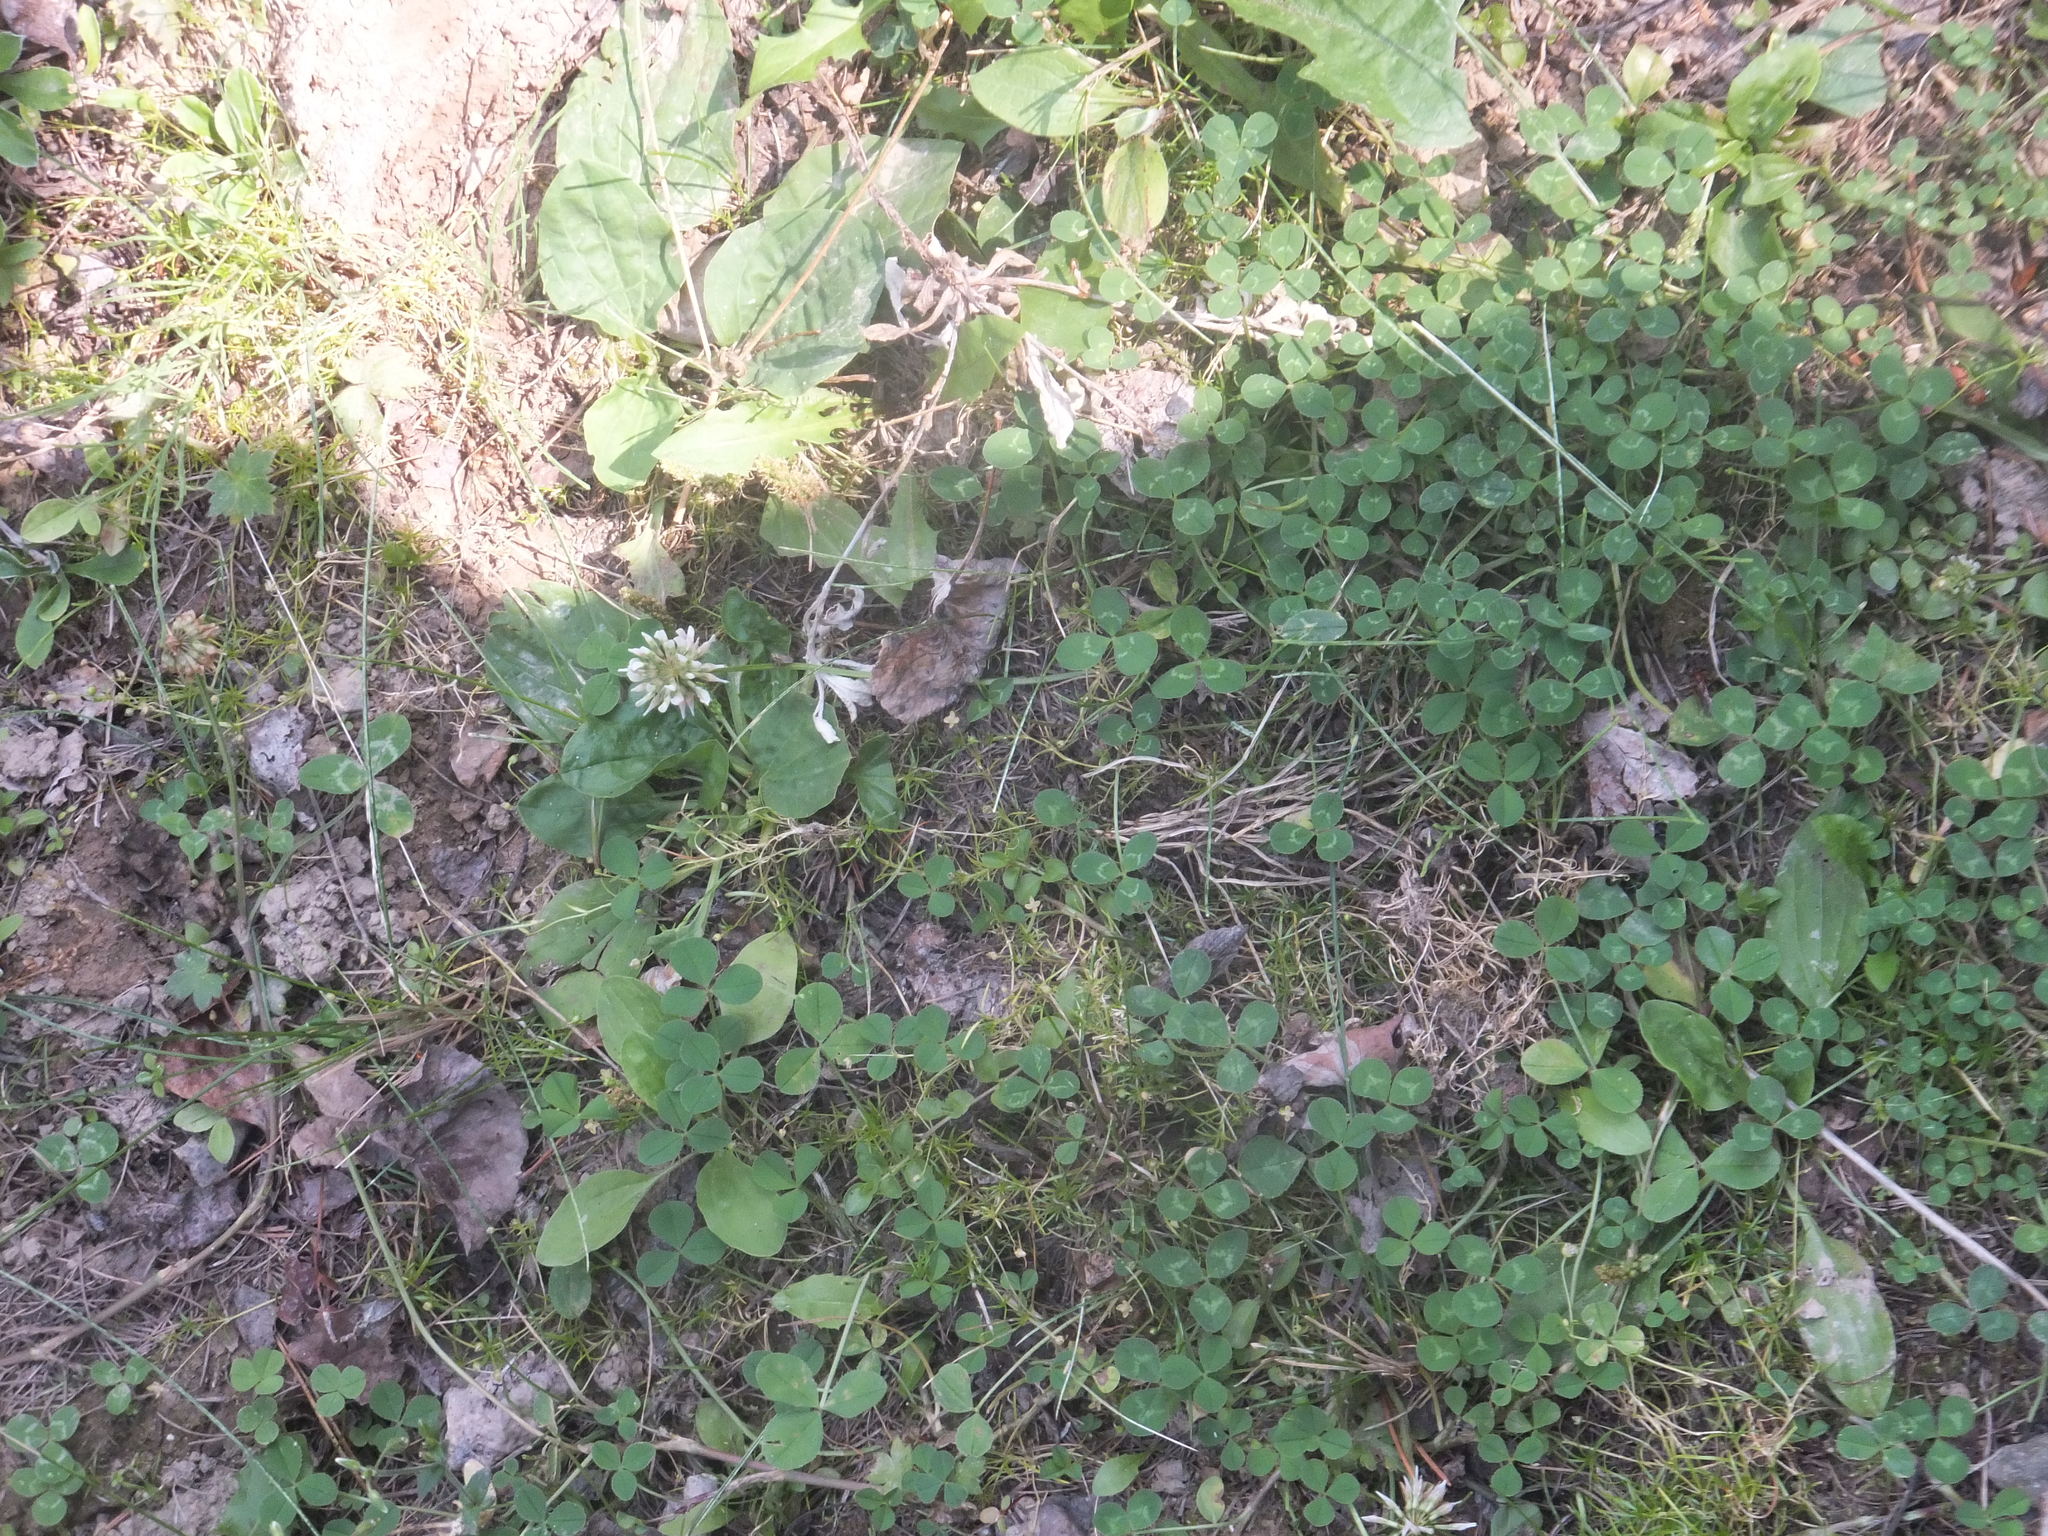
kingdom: Plantae
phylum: Tracheophyta
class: Magnoliopsida
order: Fabales
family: Fabaceae
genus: Trifolium
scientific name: Trifolium repens
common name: White clover
